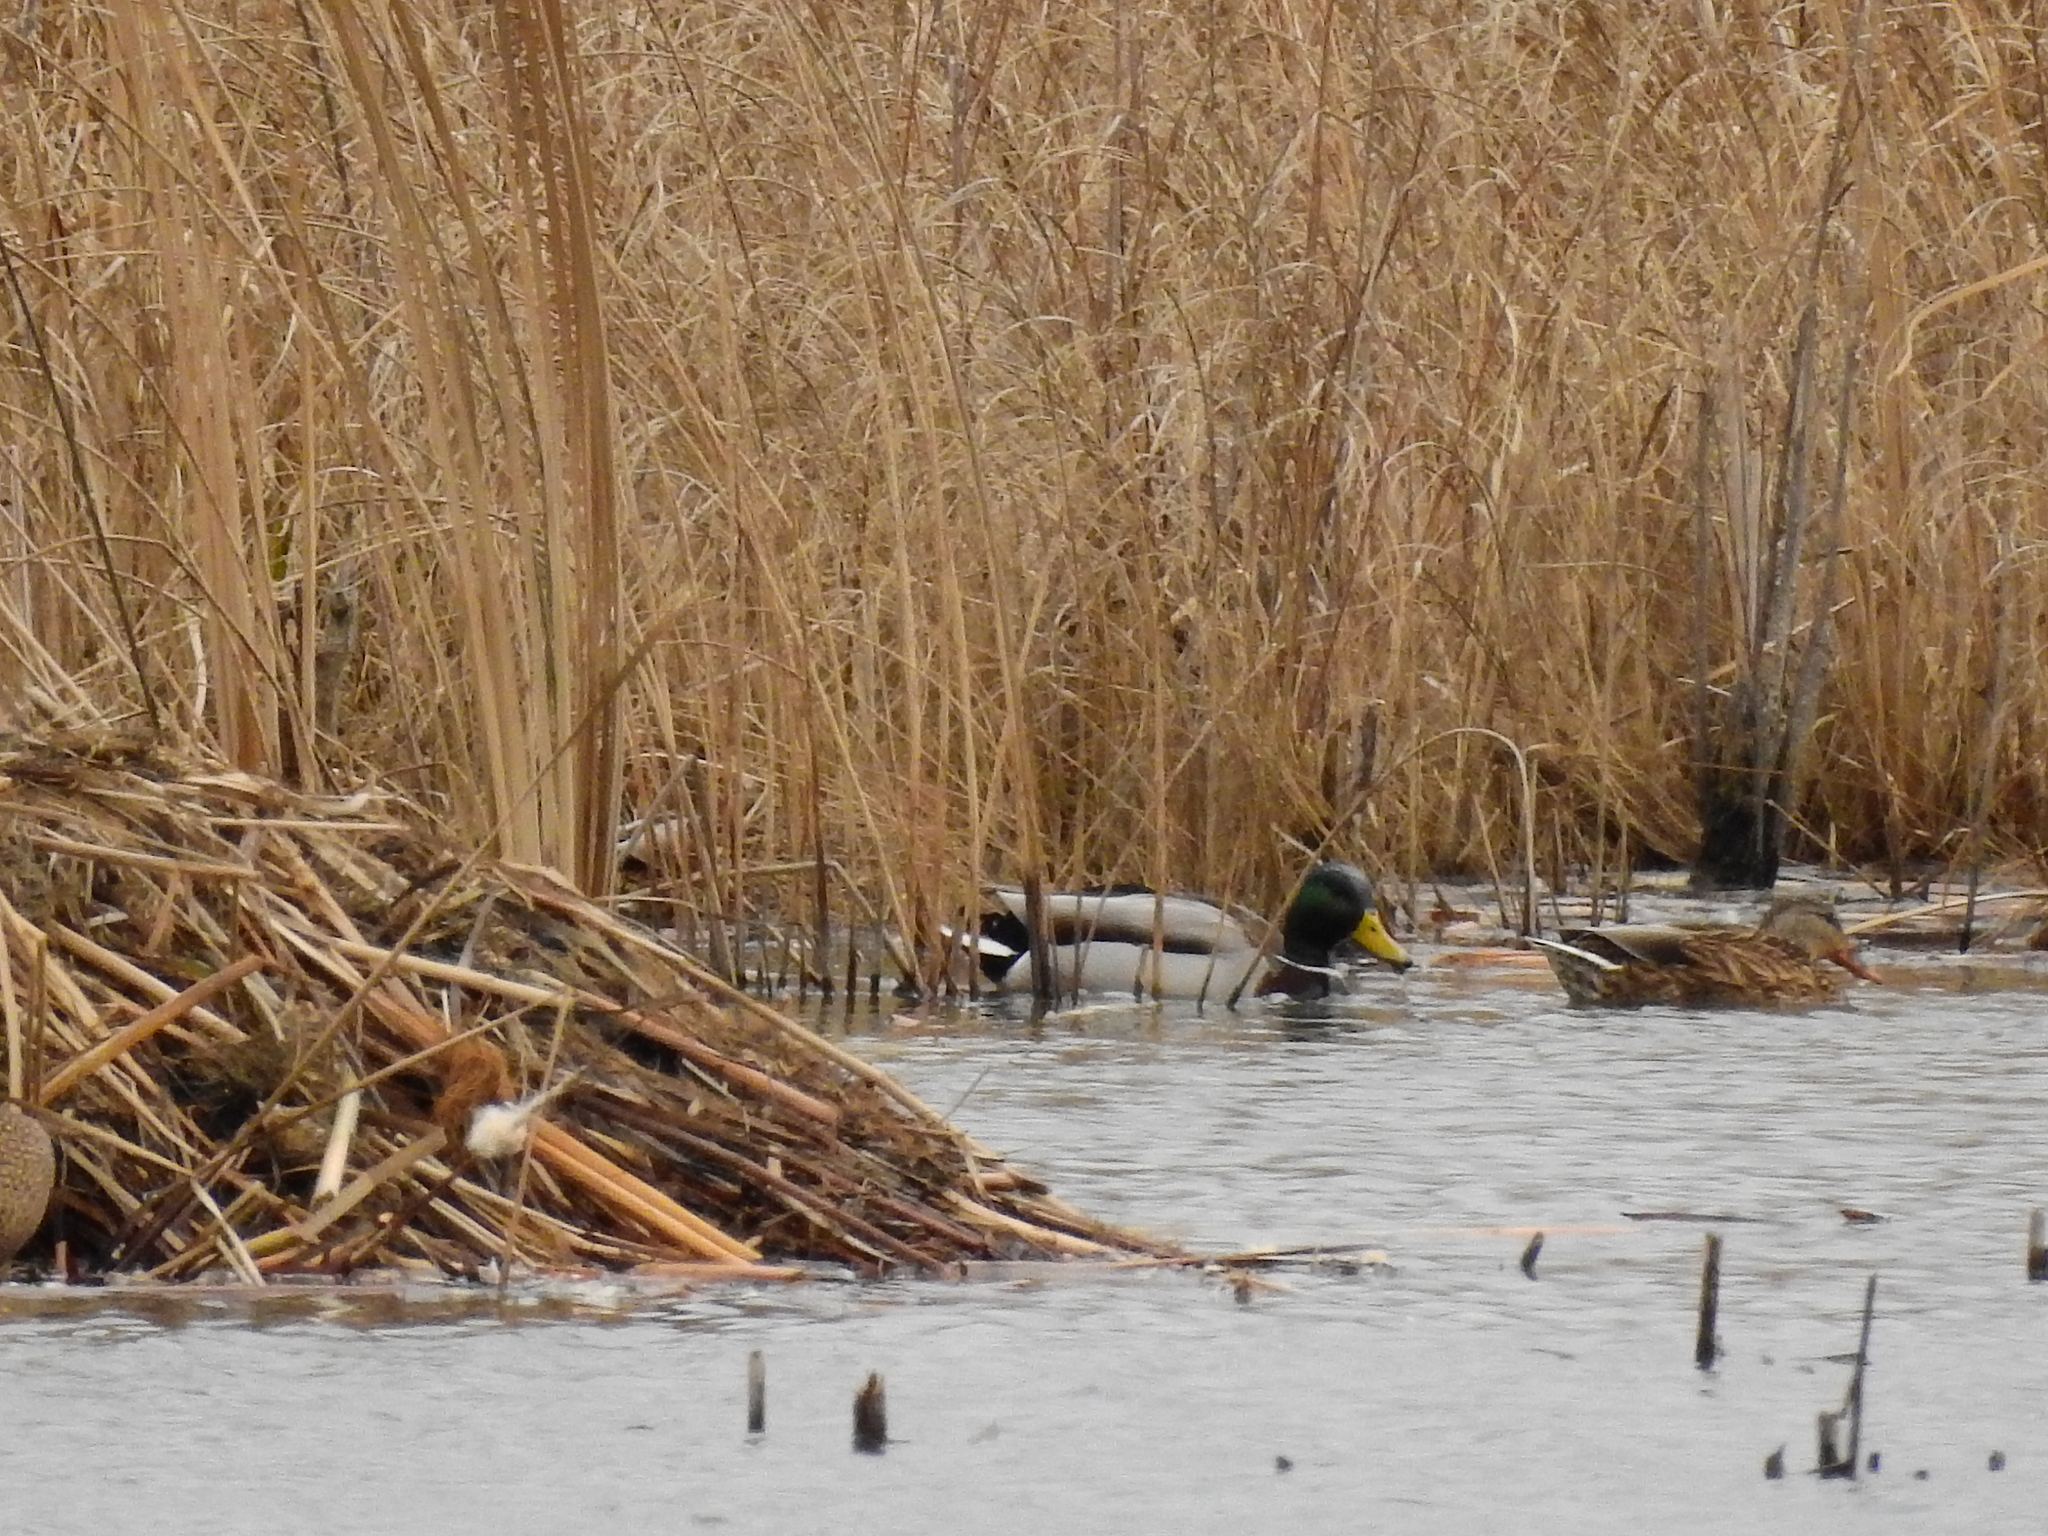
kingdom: Animalia
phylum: Chordata
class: Aves
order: Anseriformes
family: Anatidae
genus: Anas
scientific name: Anas platyrhynchos
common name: Mallard
